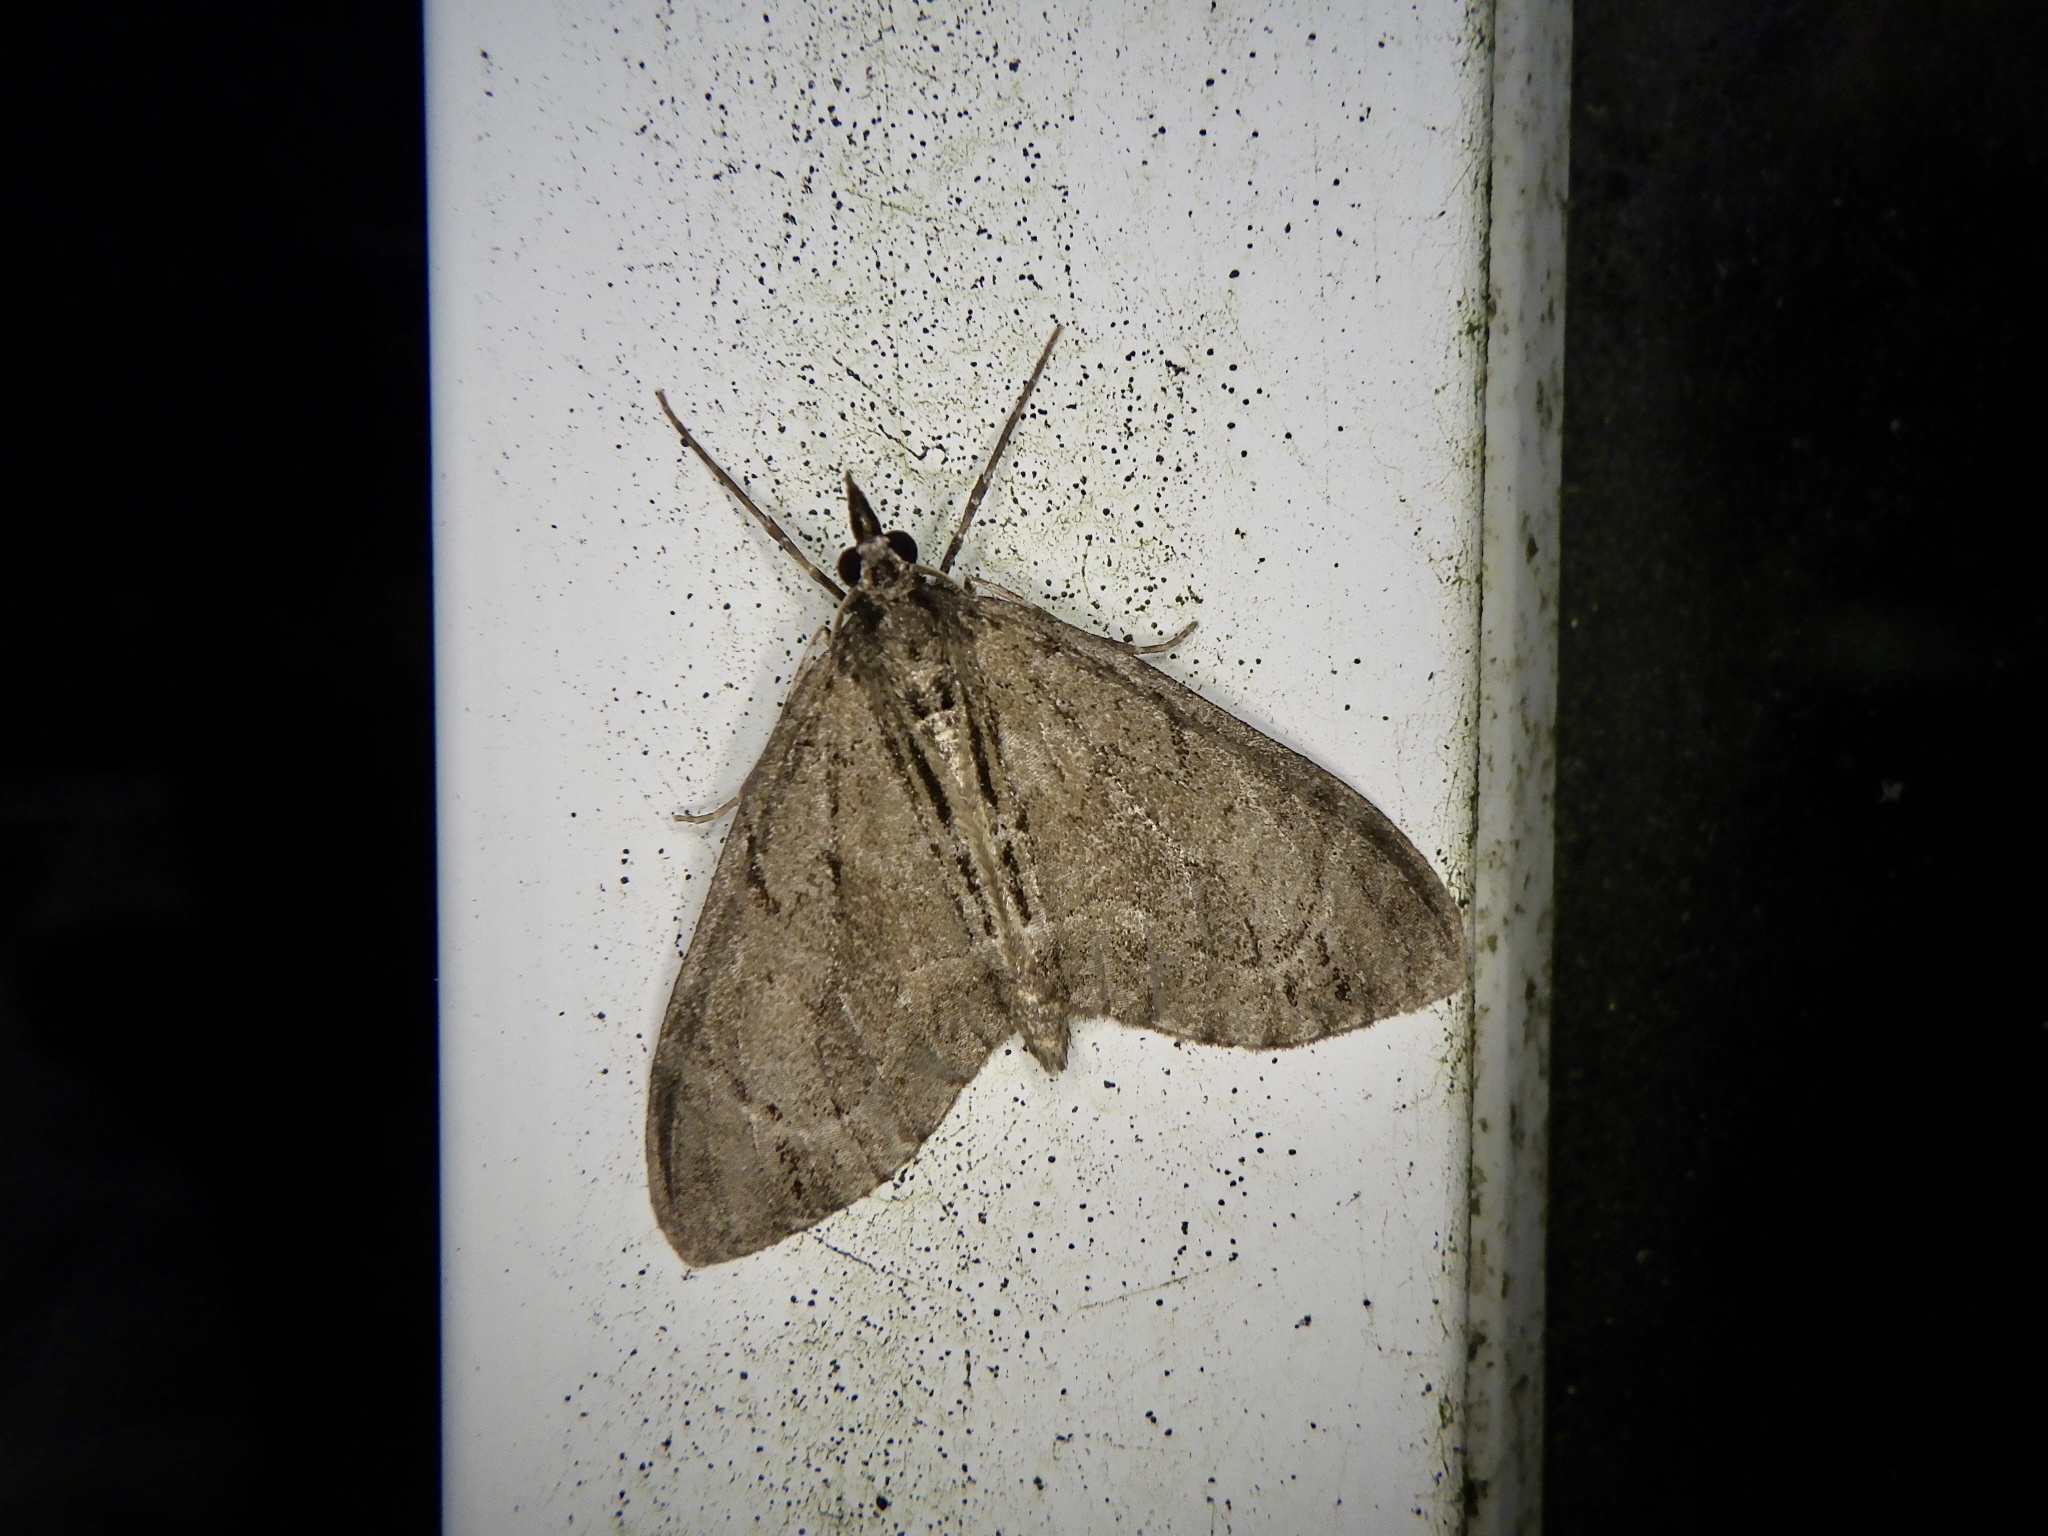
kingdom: Animalia
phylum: Arthropoda
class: Insecta
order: Lepidoptera
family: Geometridae
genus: Lobophorodes
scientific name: Lobophorodes
